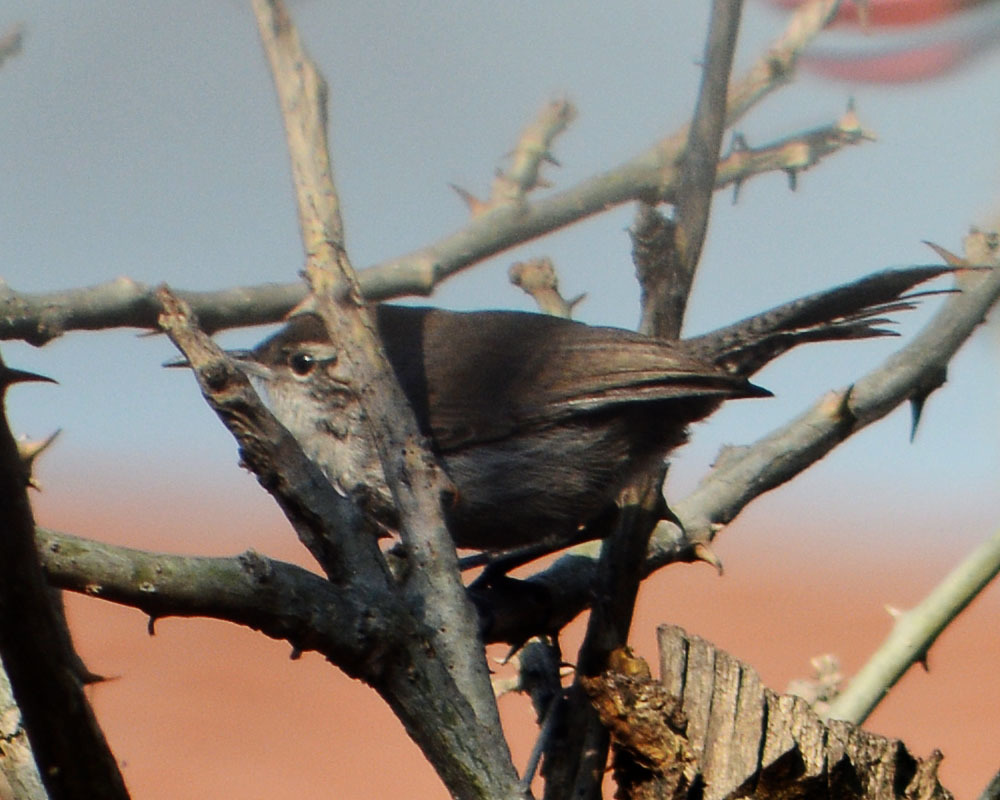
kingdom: Animalia
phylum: Chordata
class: Aves
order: Passeriformes
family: Troglodytidae
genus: Thryomanes
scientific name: Thryomanes bewickii
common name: Bewick's wren
